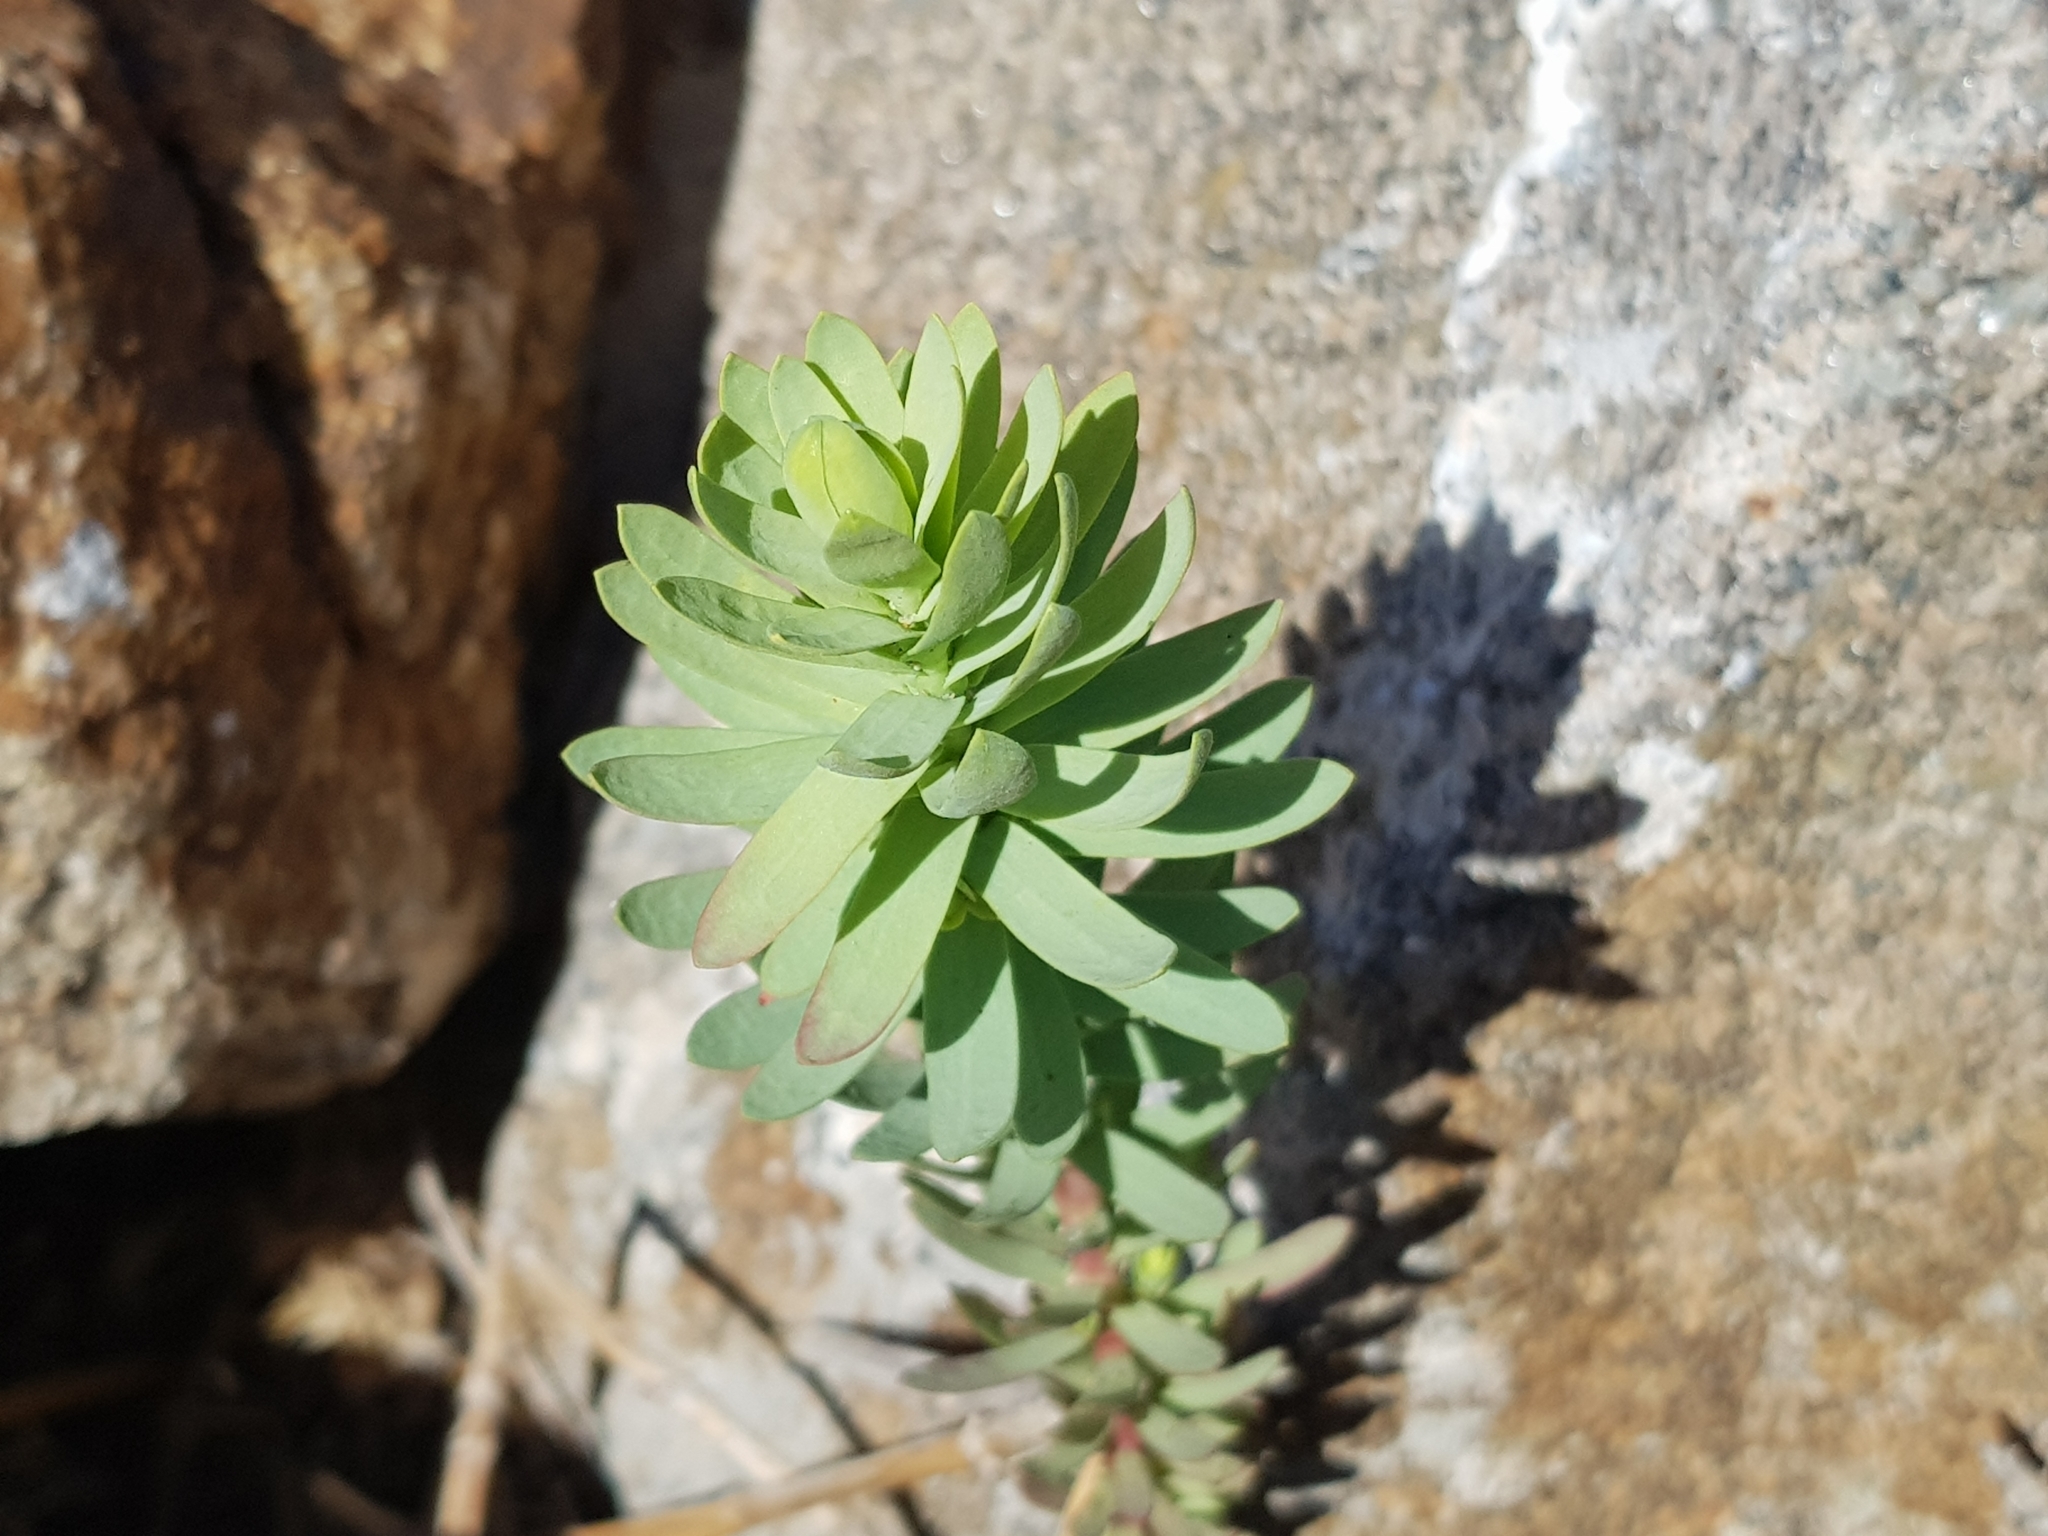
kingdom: Plantae
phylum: Tracheophyta
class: Magnoliopsida
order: Malpighiales
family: Euphorbiaceae
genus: Euphorbia
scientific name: Euphorbia paralias
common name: Sea spurge
